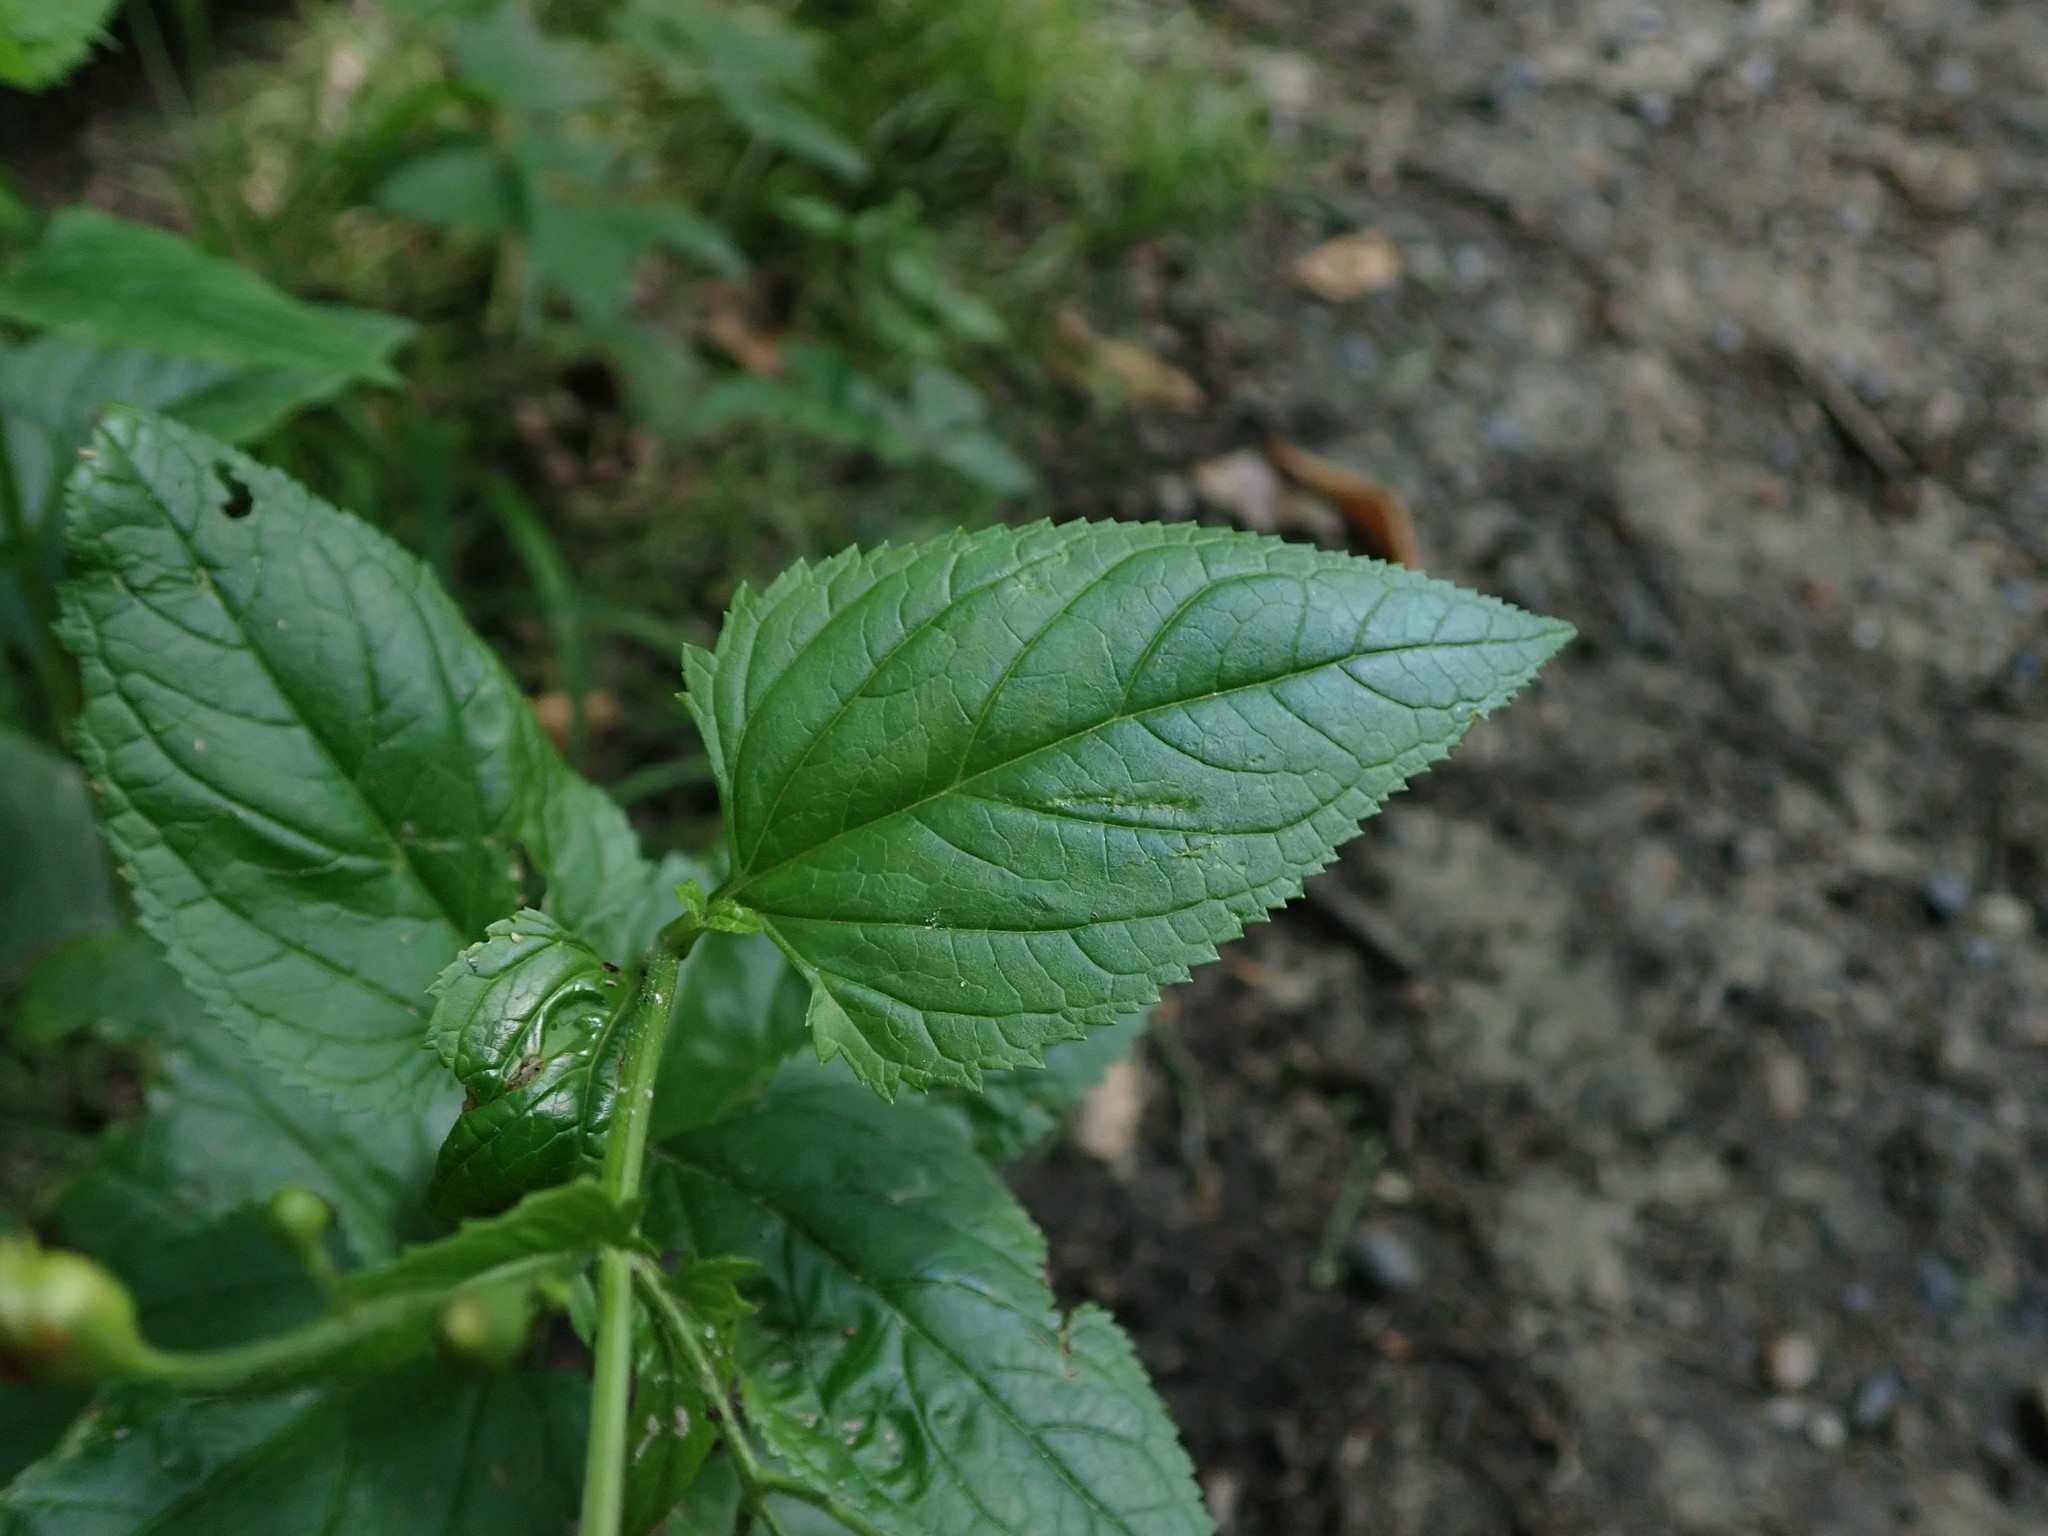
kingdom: Plantae
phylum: Tracheophyta
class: Magnoliopsida
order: Lamiales
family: Scrophulariaceae
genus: Scrophularia
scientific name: Scrophularia nodosa
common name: Common figwort
